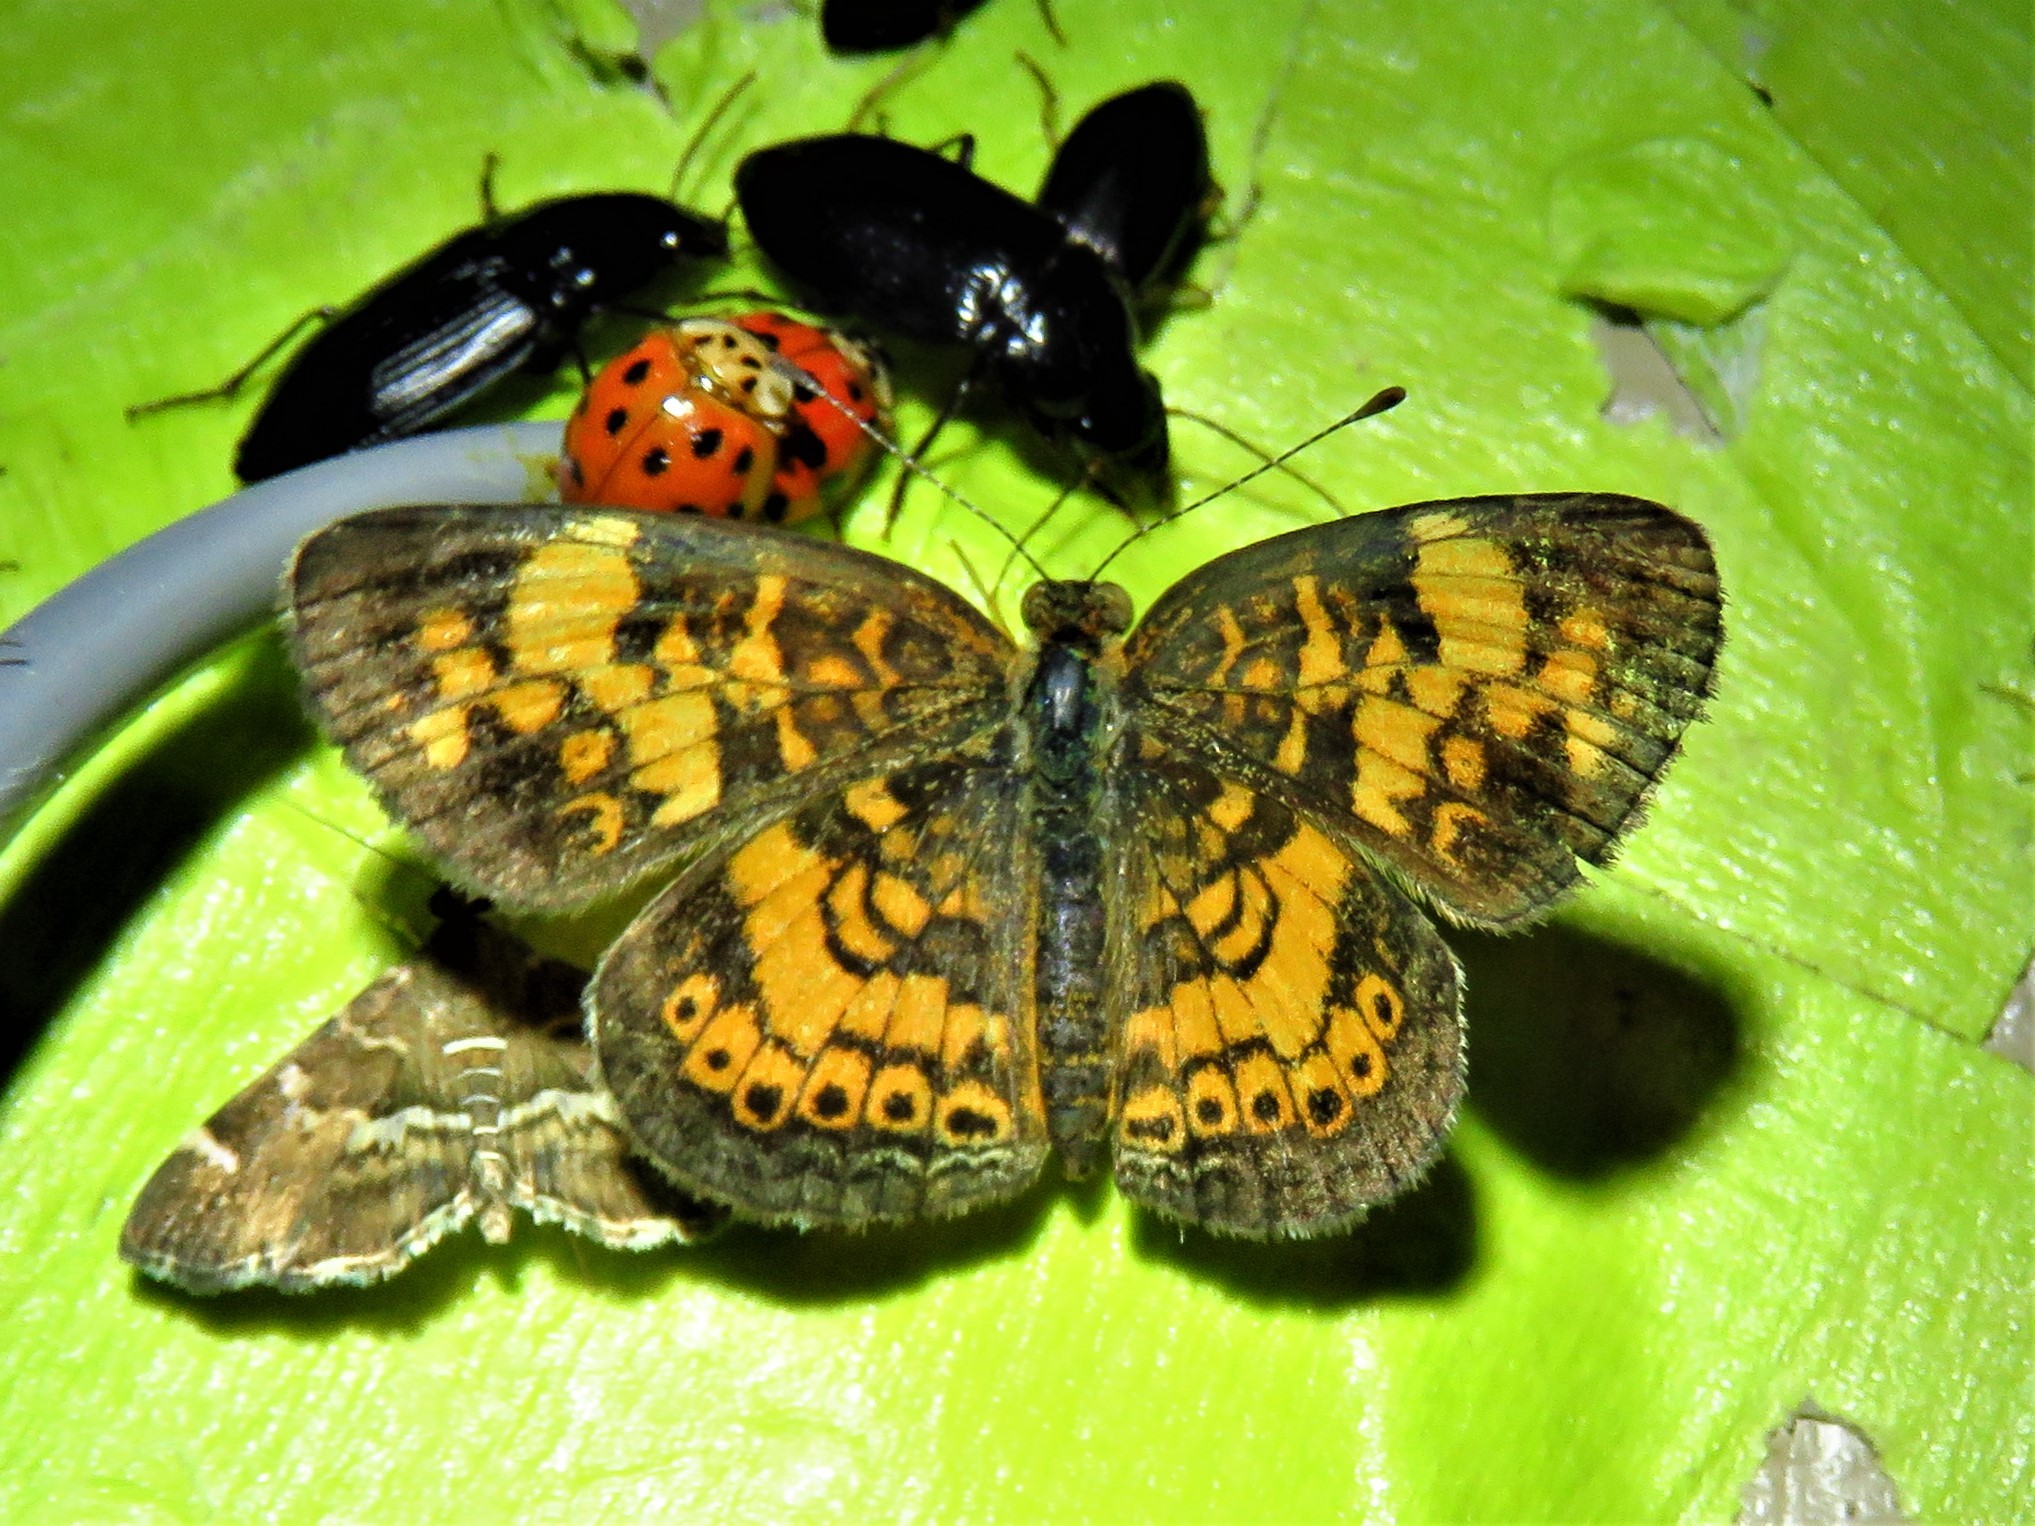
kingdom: Animalia
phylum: Arthropoda
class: Insecta
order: Lepidoptera
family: Nymphalidae
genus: Phyciodes
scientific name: Phyciodes tharos
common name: Pearl crescent
